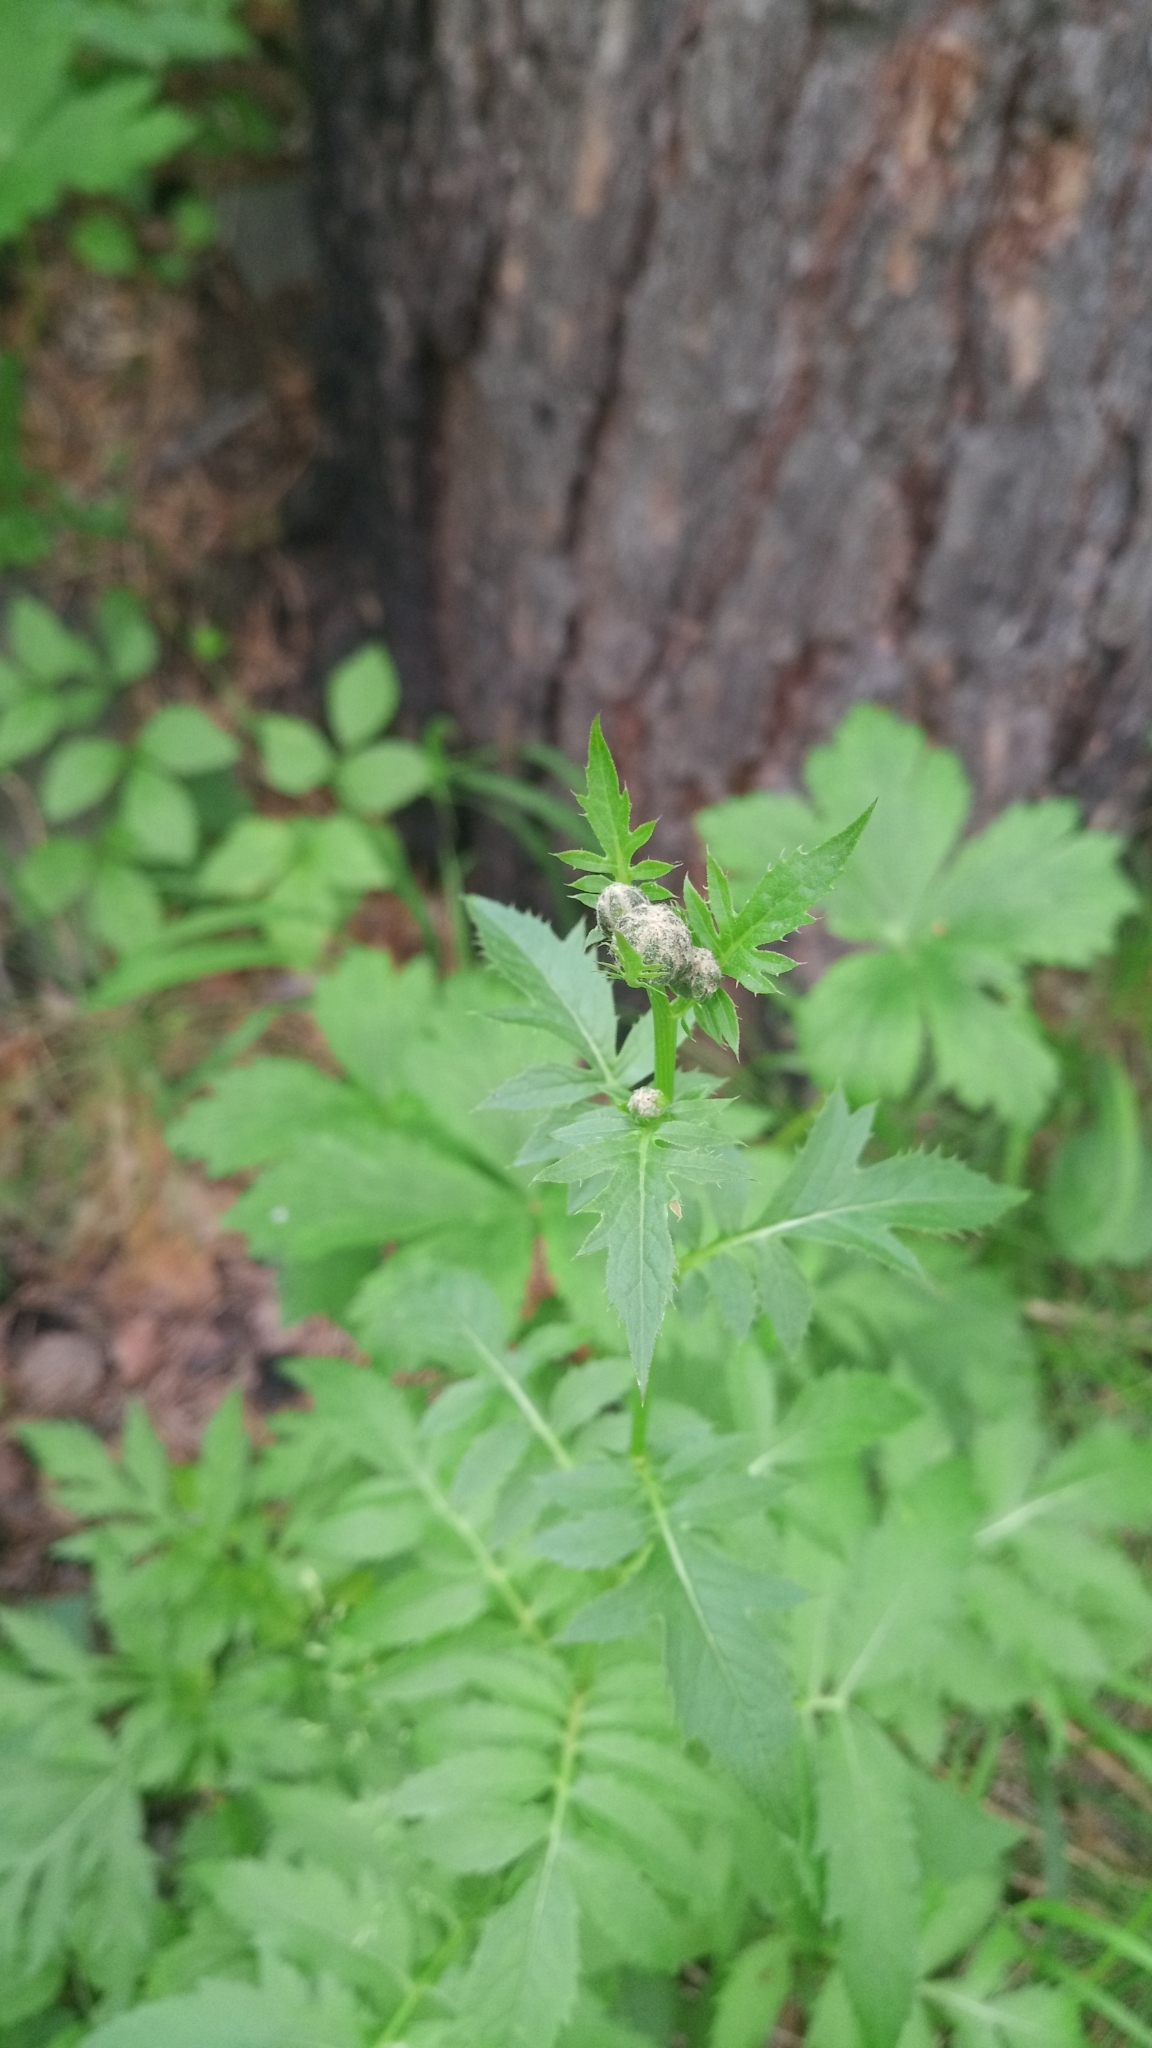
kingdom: Plantae
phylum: Tracheophyta
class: Magnoliopsida
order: Asterales
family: Asteraceae
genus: Serratula
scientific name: Serratula coronata
